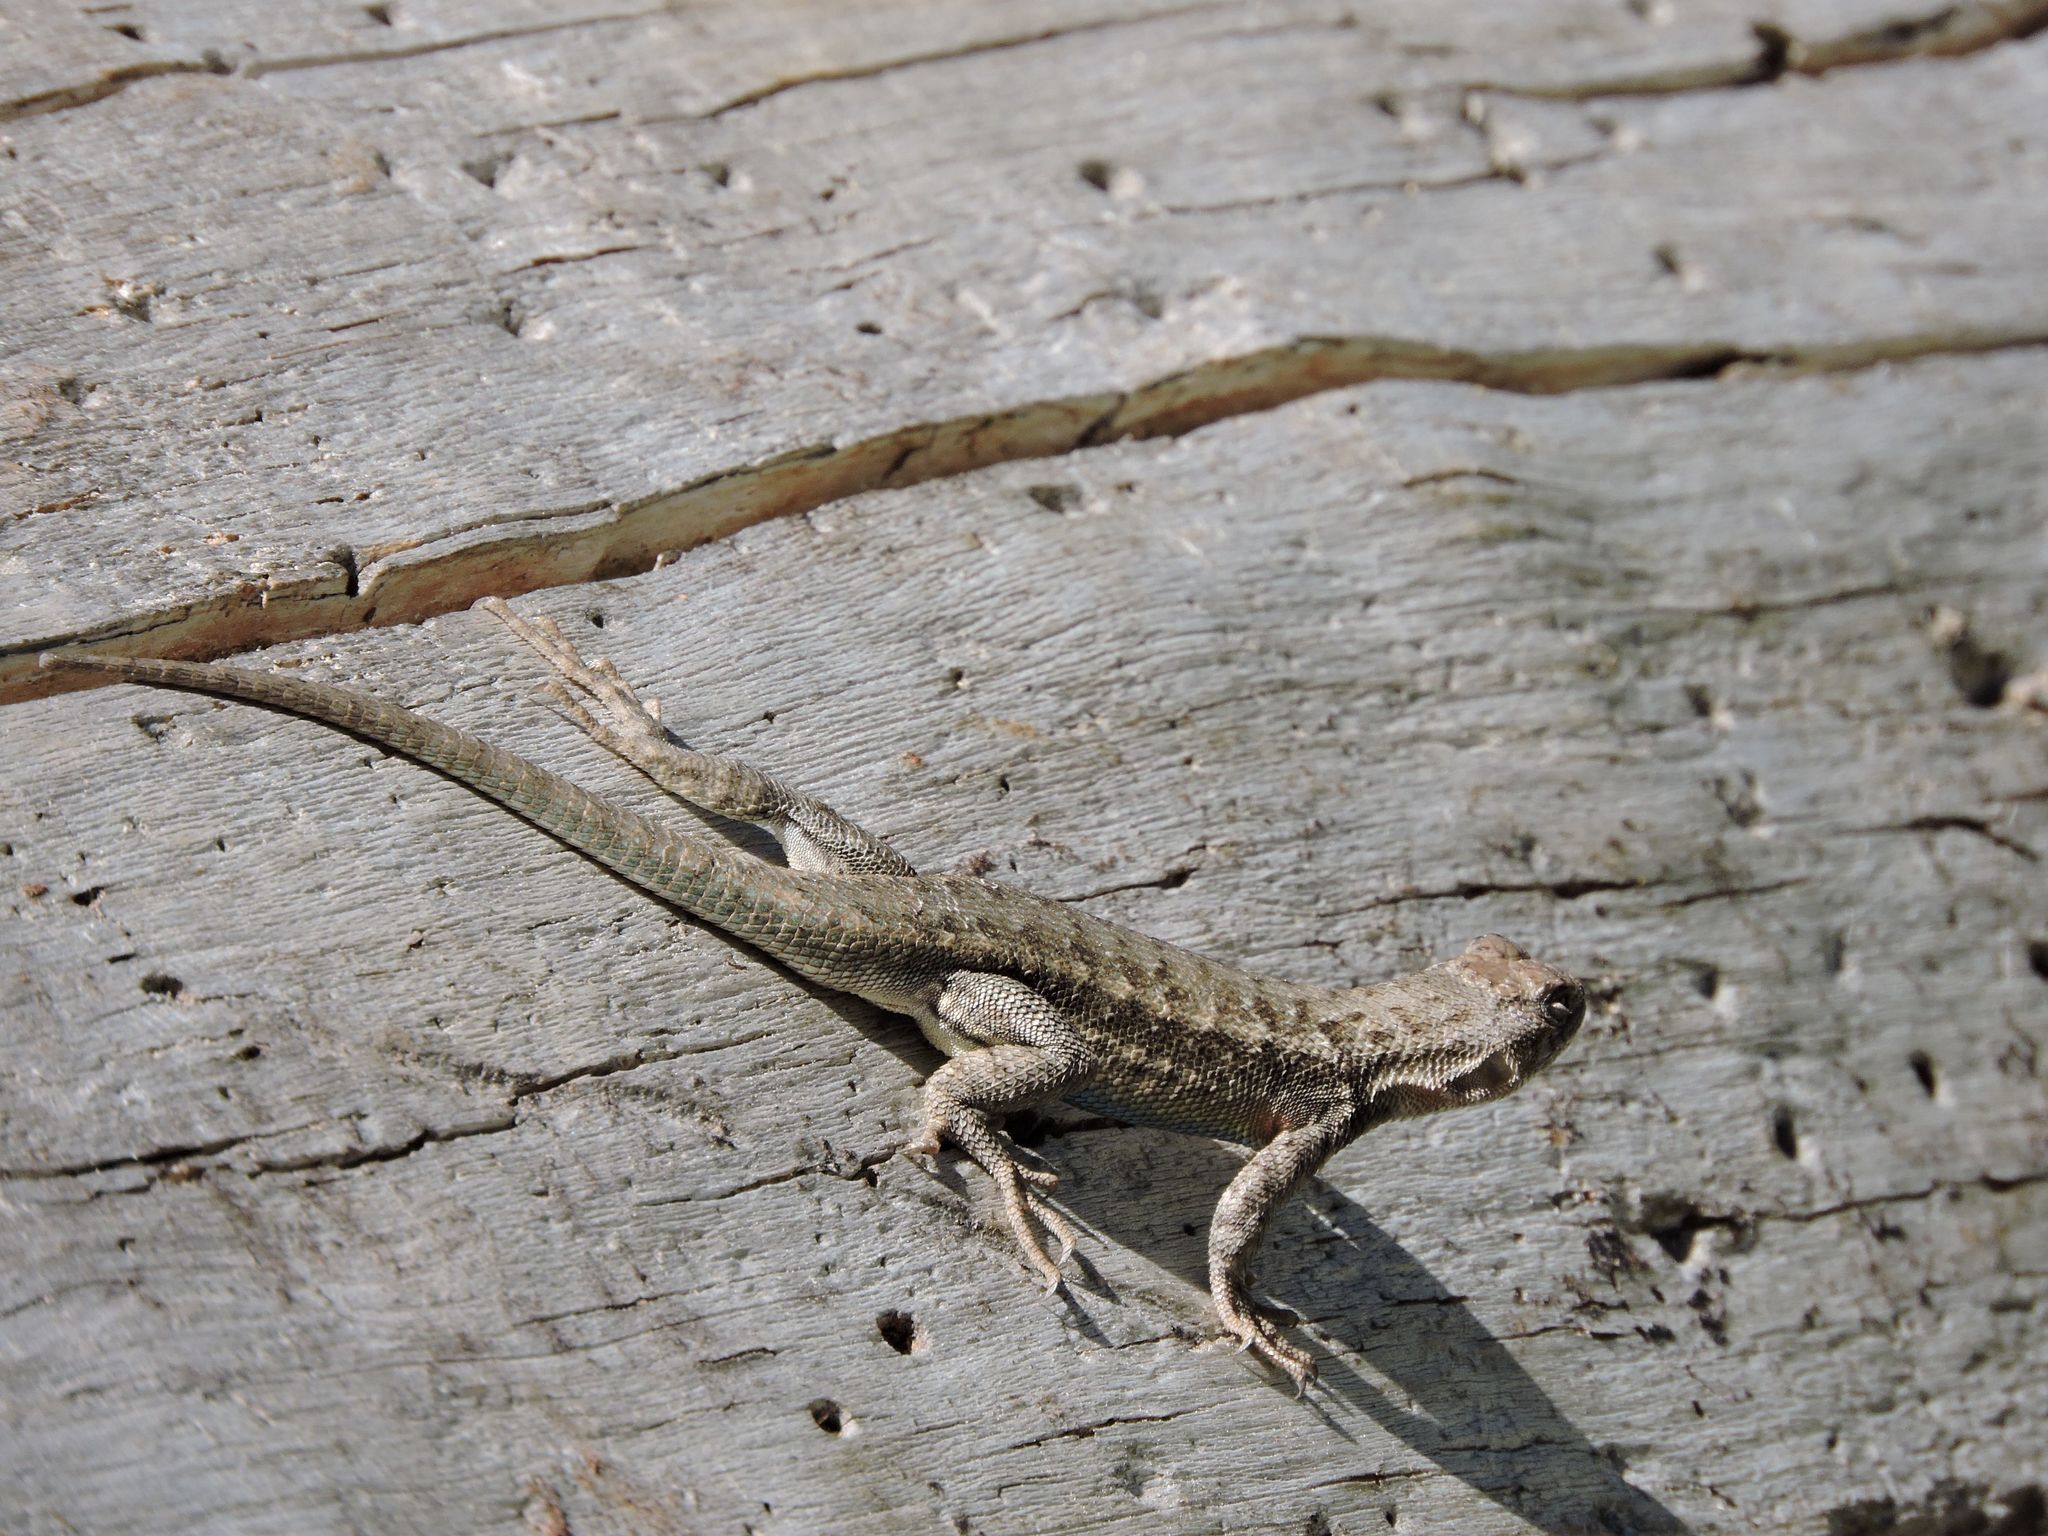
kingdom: Animalia
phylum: Chordata
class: Squamata
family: Phrynosomatidae
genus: Sceloporus
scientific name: Sceloporus occidentalis
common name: Western fence lizard
